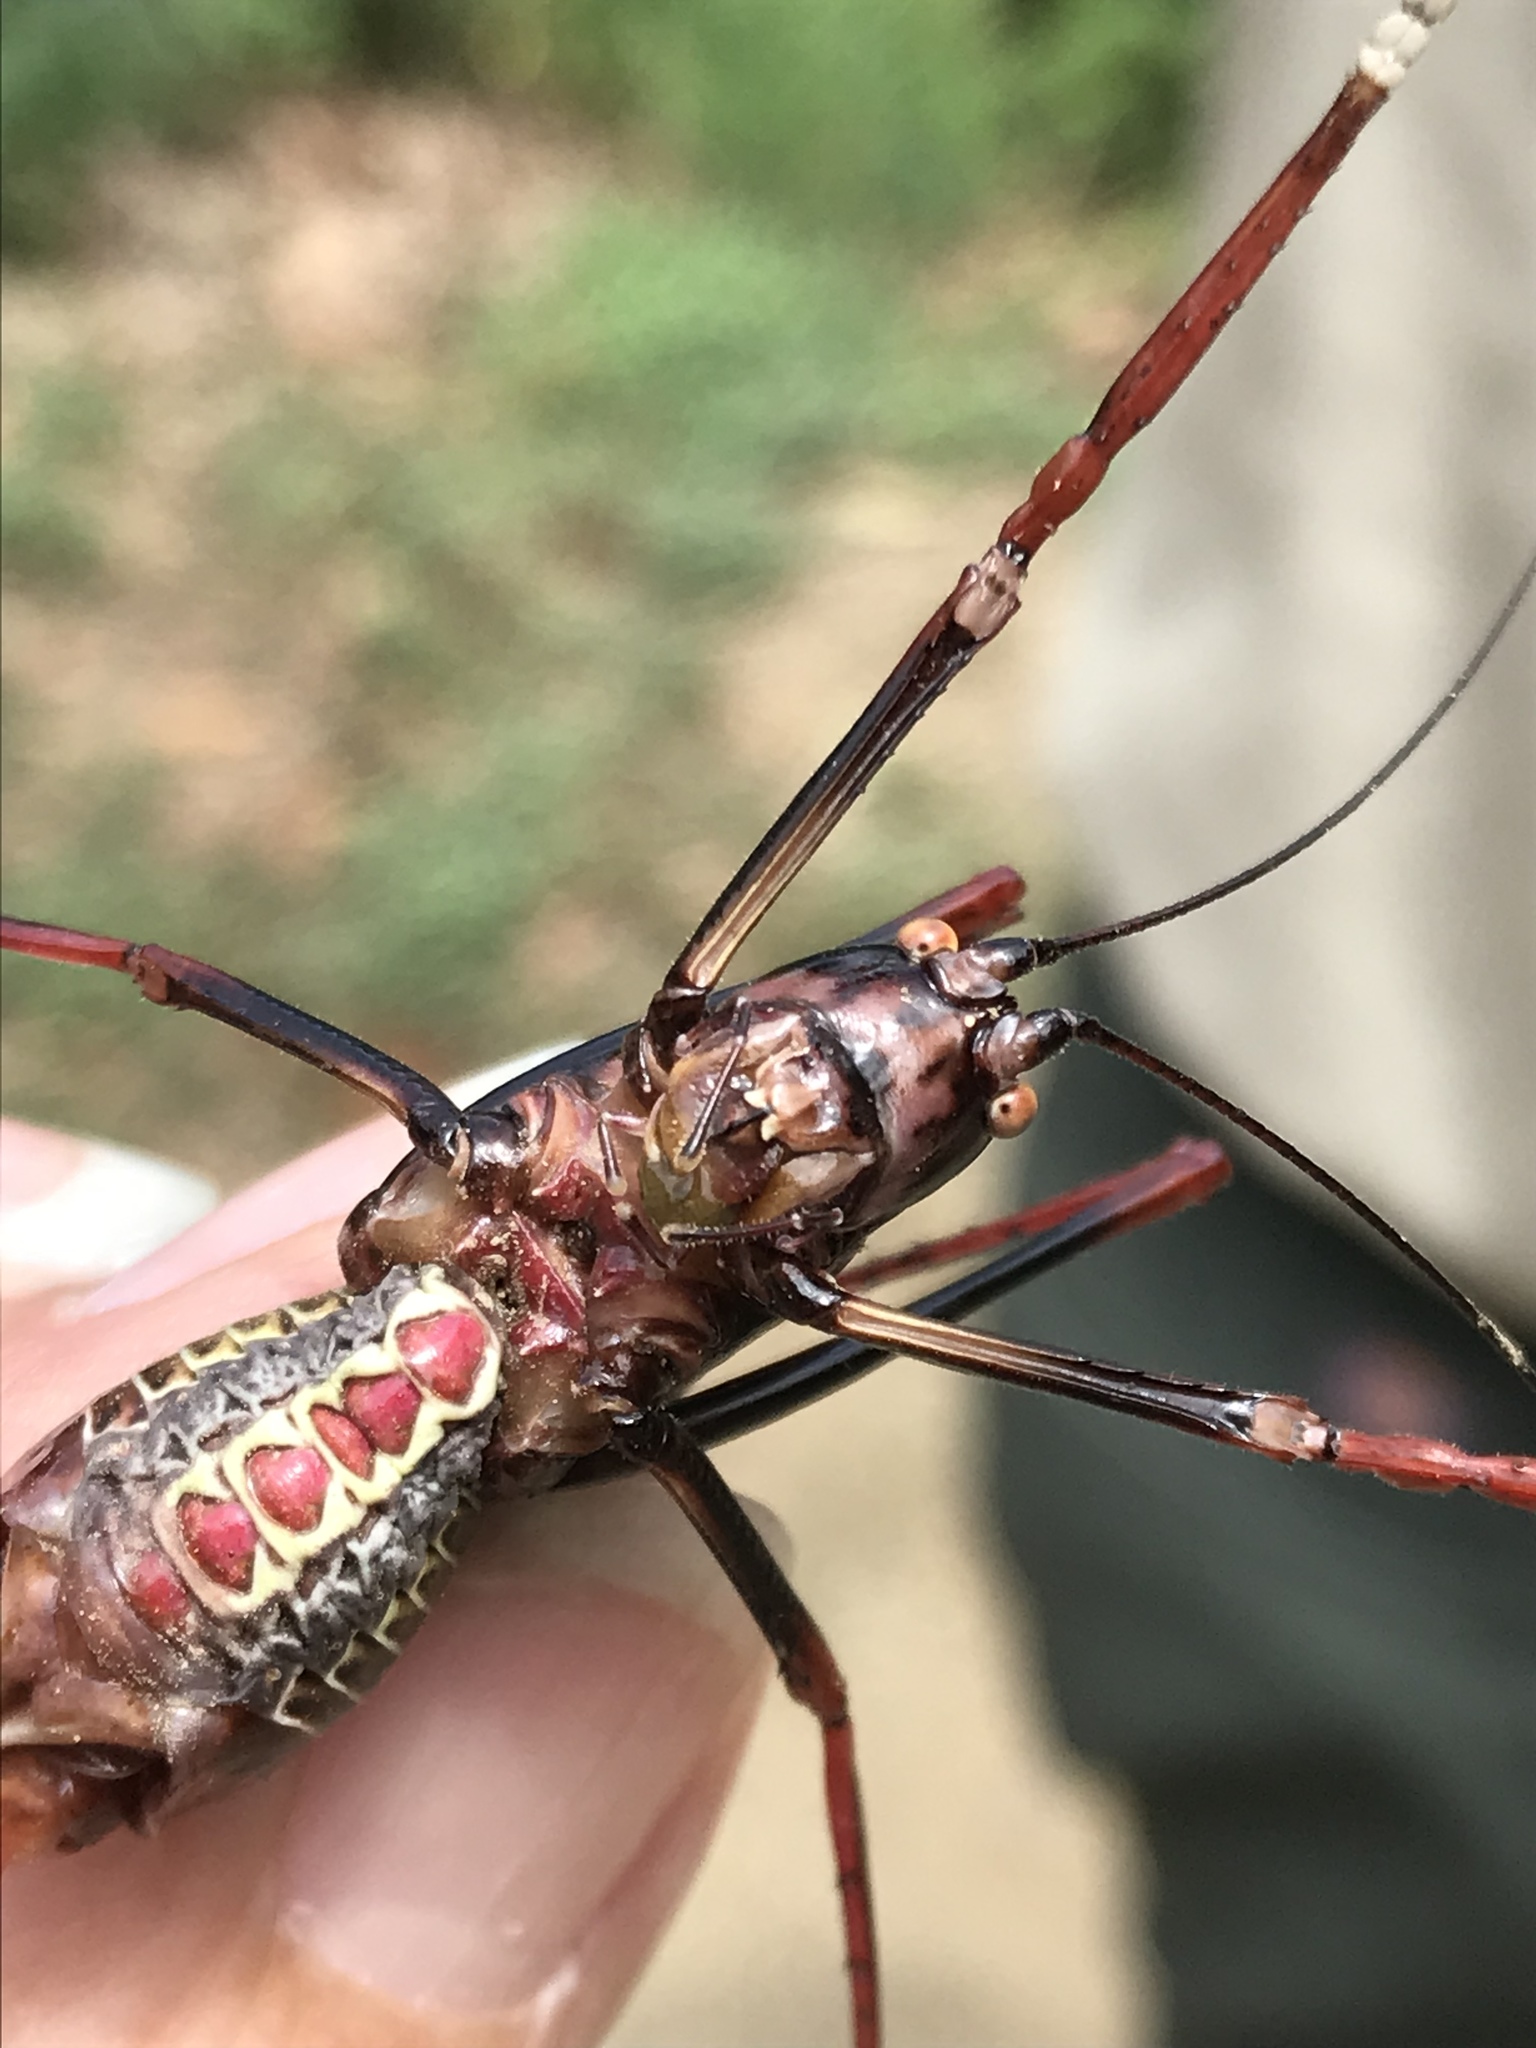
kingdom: Animalia
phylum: Arthropoda
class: Insecta
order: Orthoptera
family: Tettigoniidae
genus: Pterophylla
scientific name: Pterophylla beltrani
